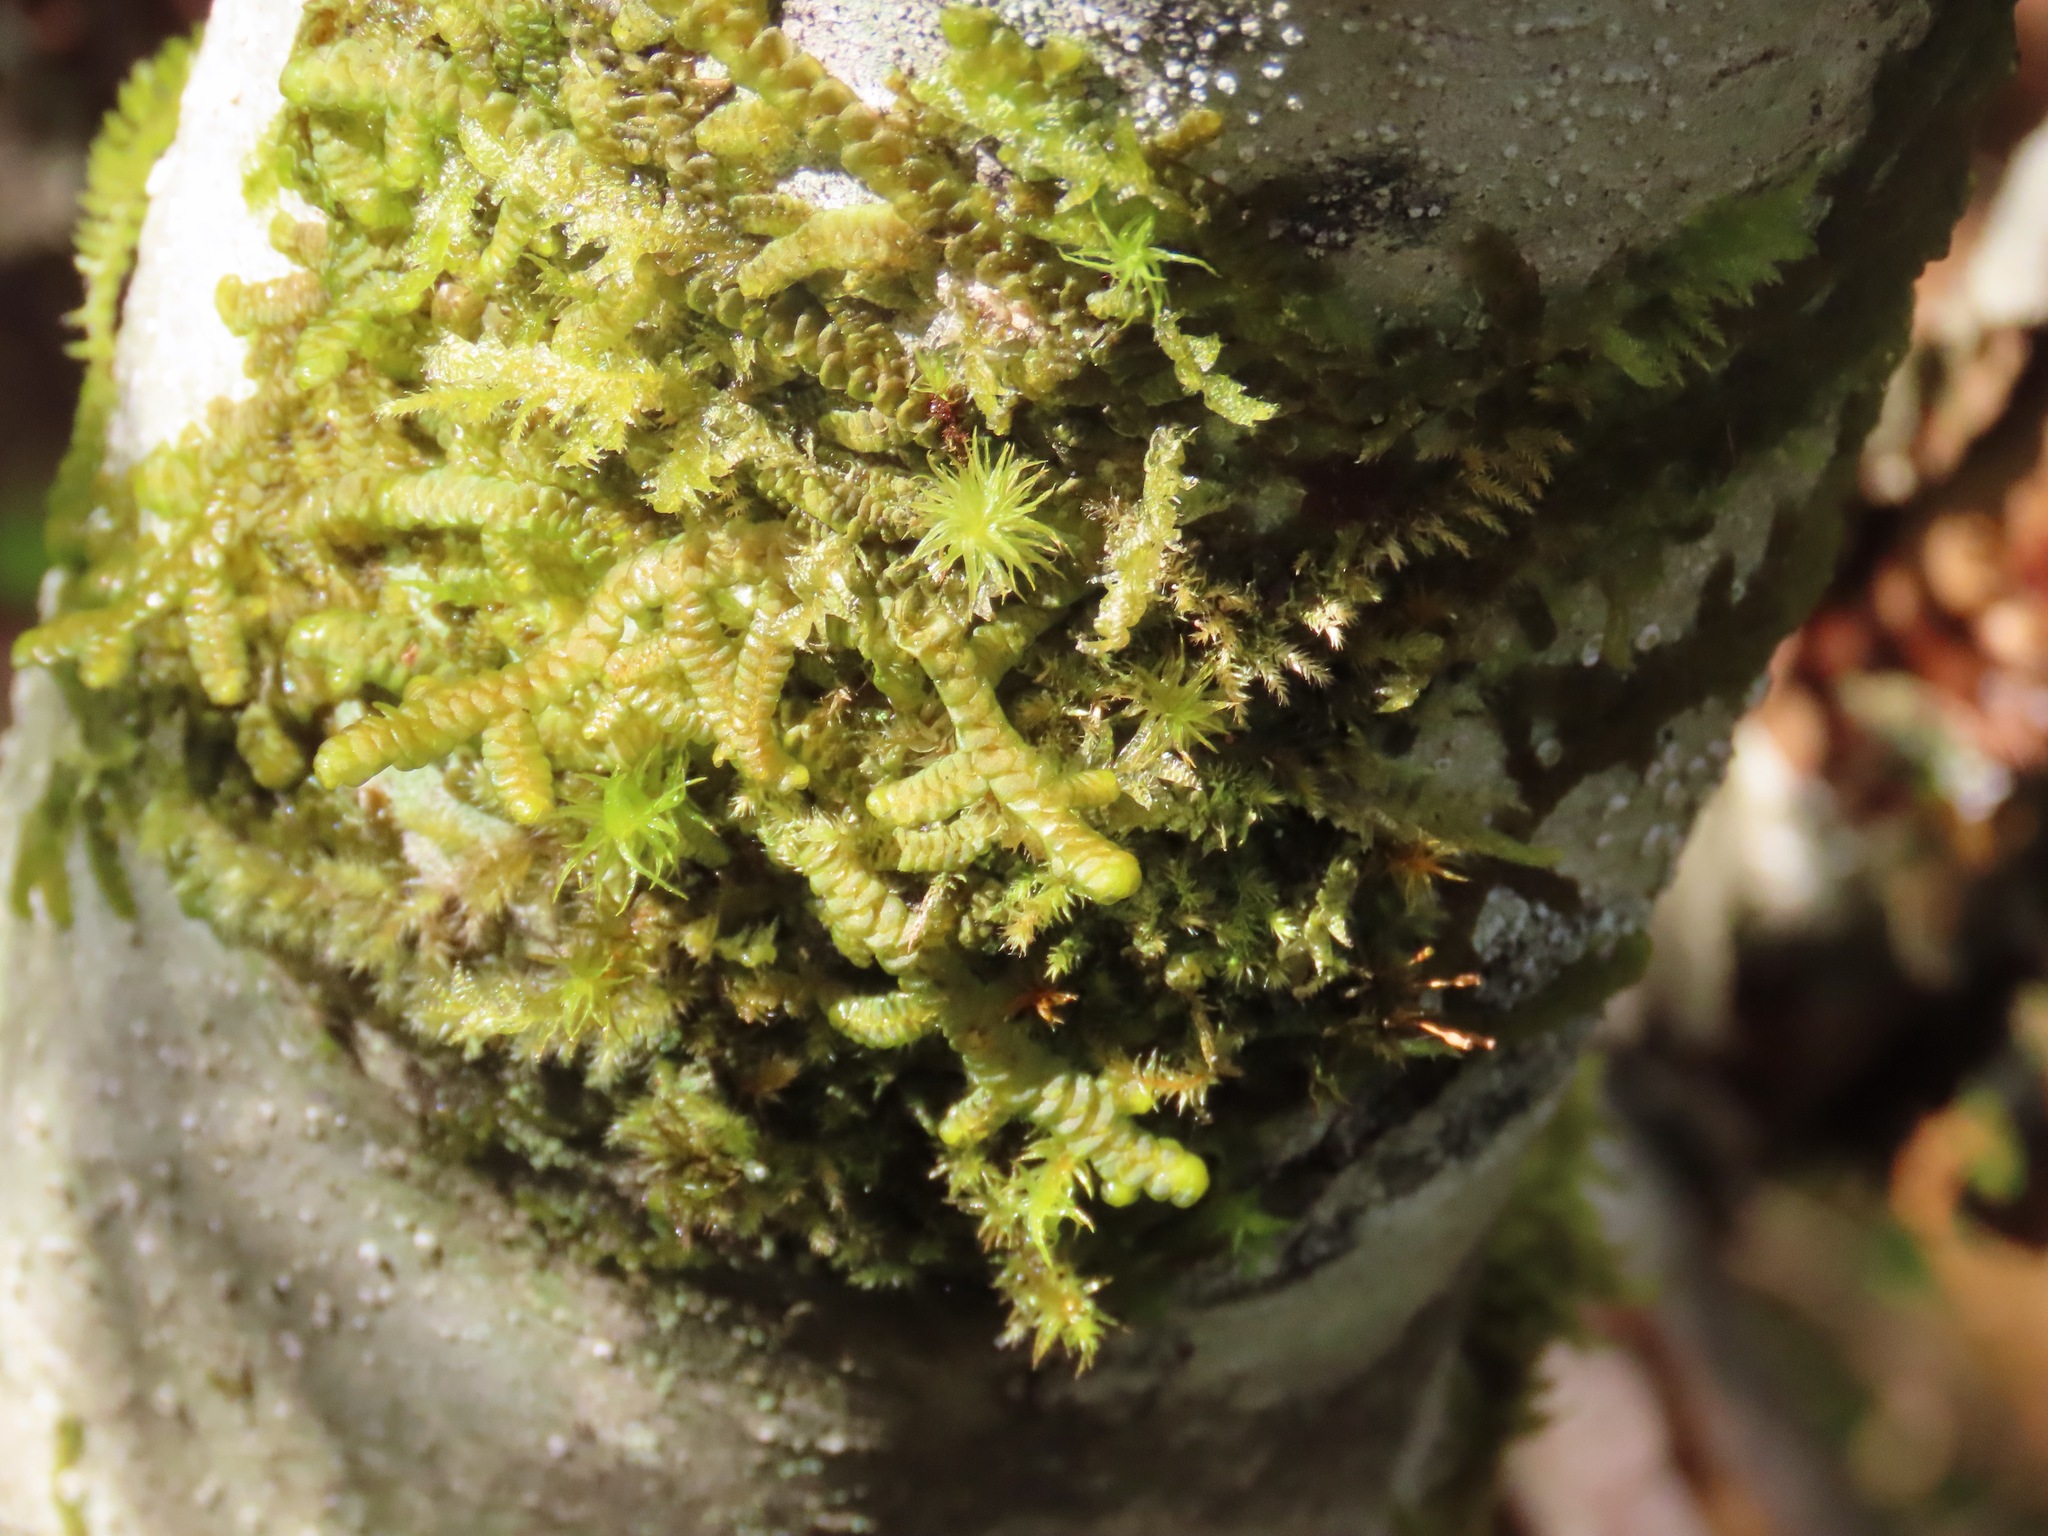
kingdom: Plantae
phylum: Marchantiophyta
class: Jungermanniopsida
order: Porellales
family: Porellaceae
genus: Porella
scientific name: Porella navicularis
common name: Tree ruffle liverwort
